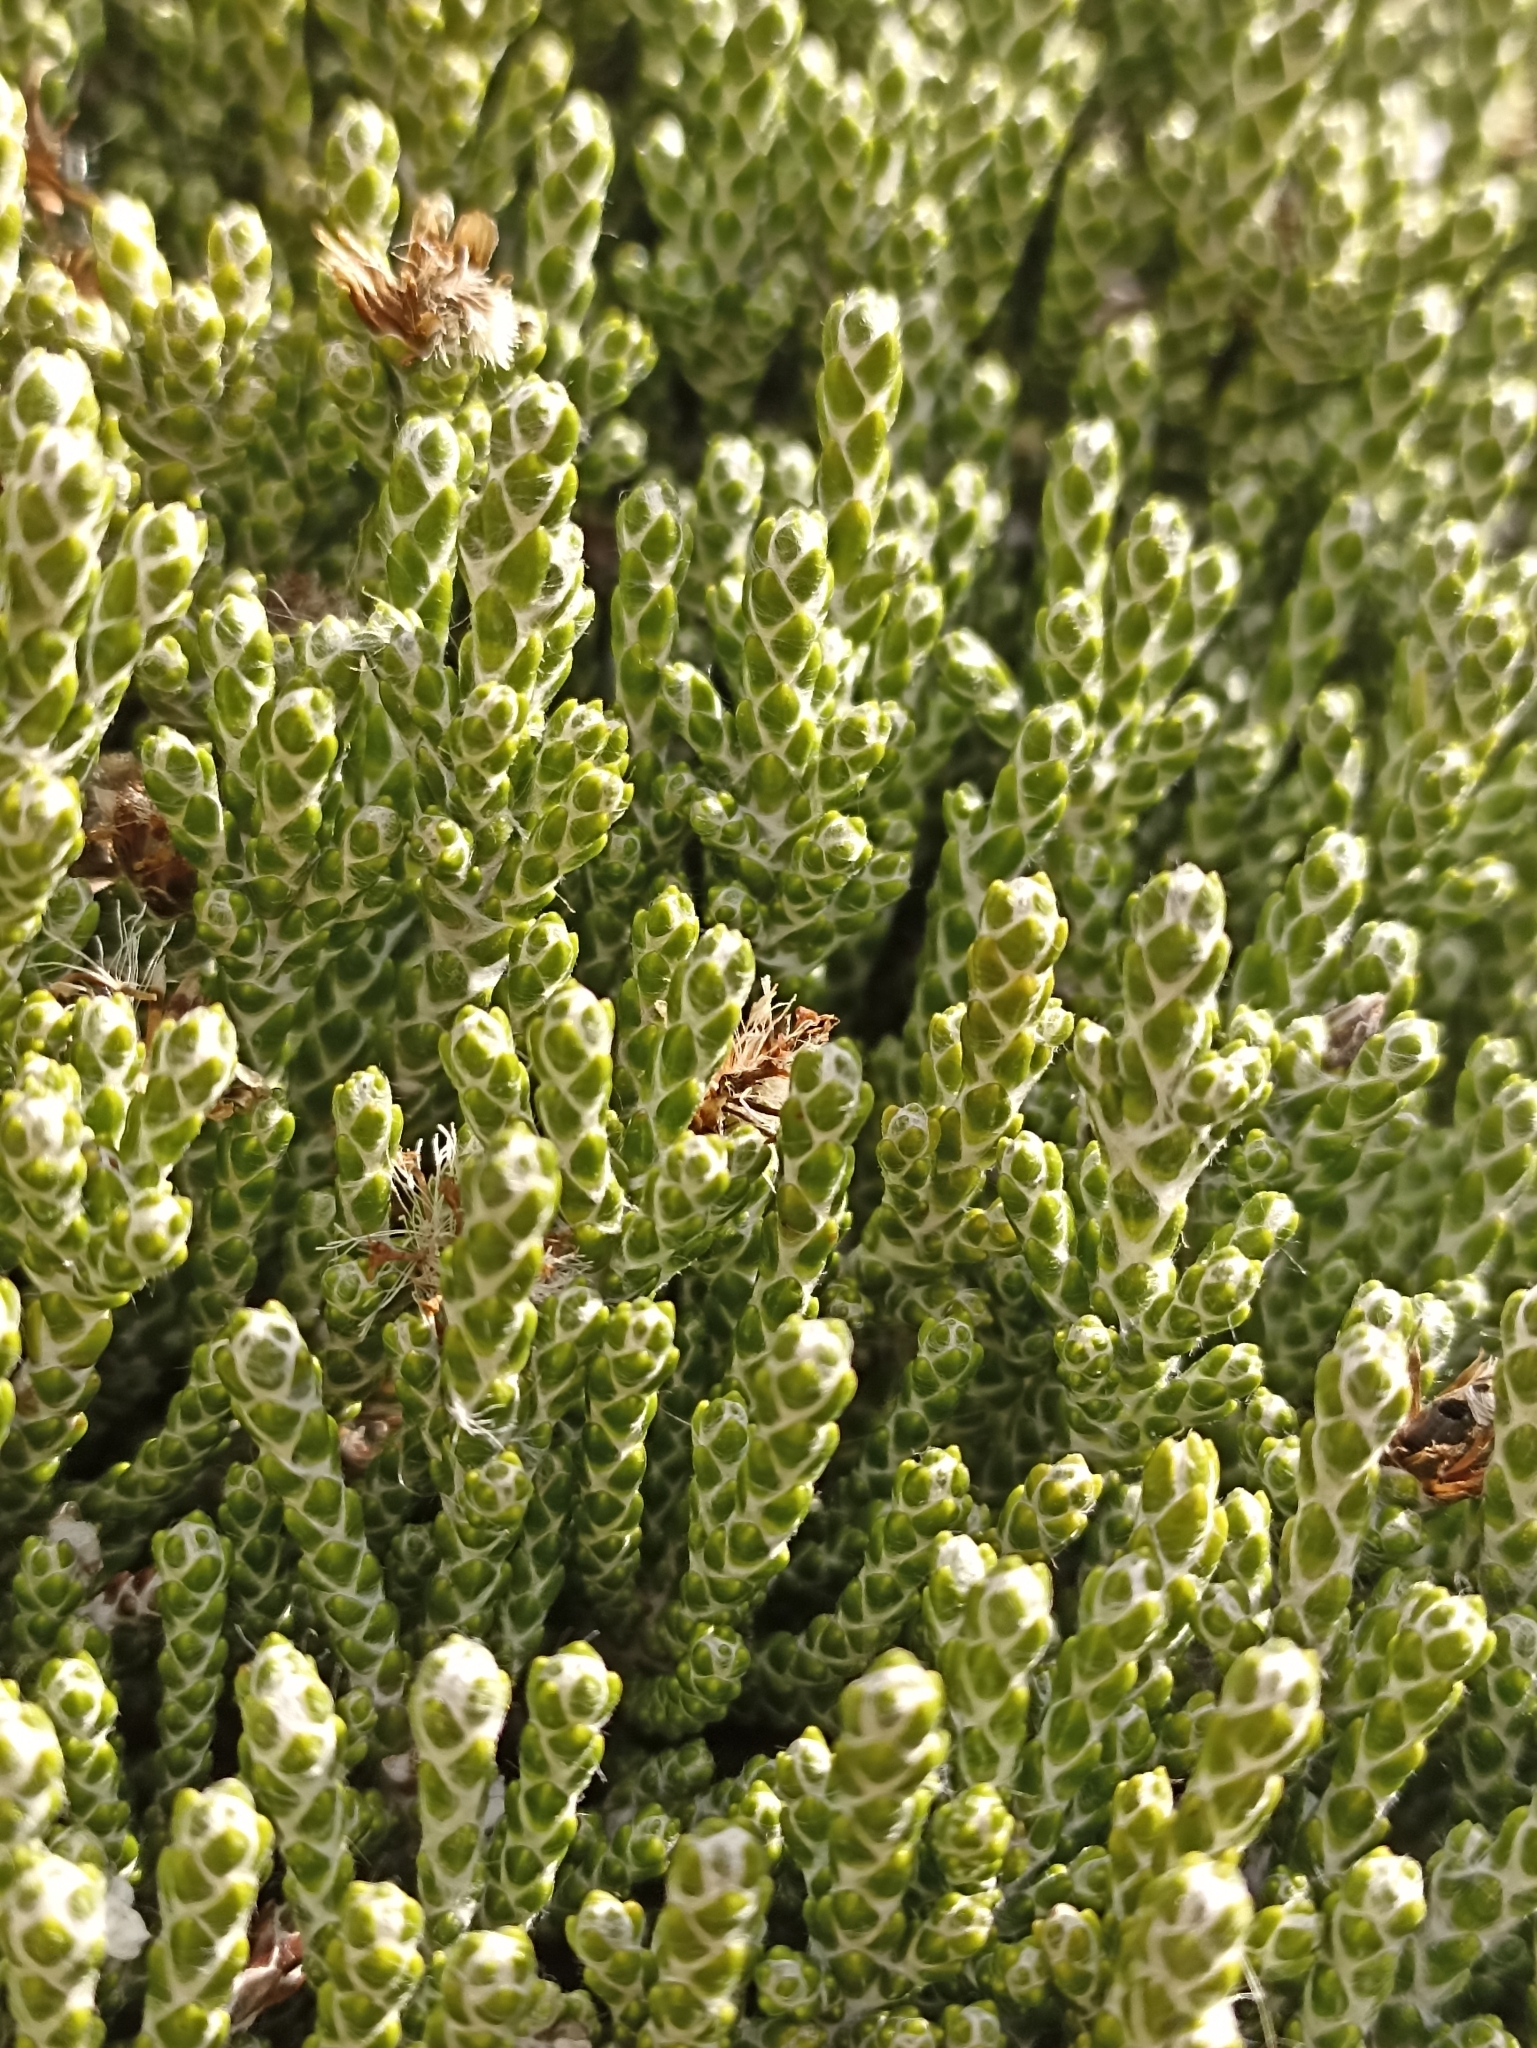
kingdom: Plantae
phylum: Tracheophyta
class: Magnoliopsida
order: Asterales
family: Asteraceae
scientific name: Asteraceae
